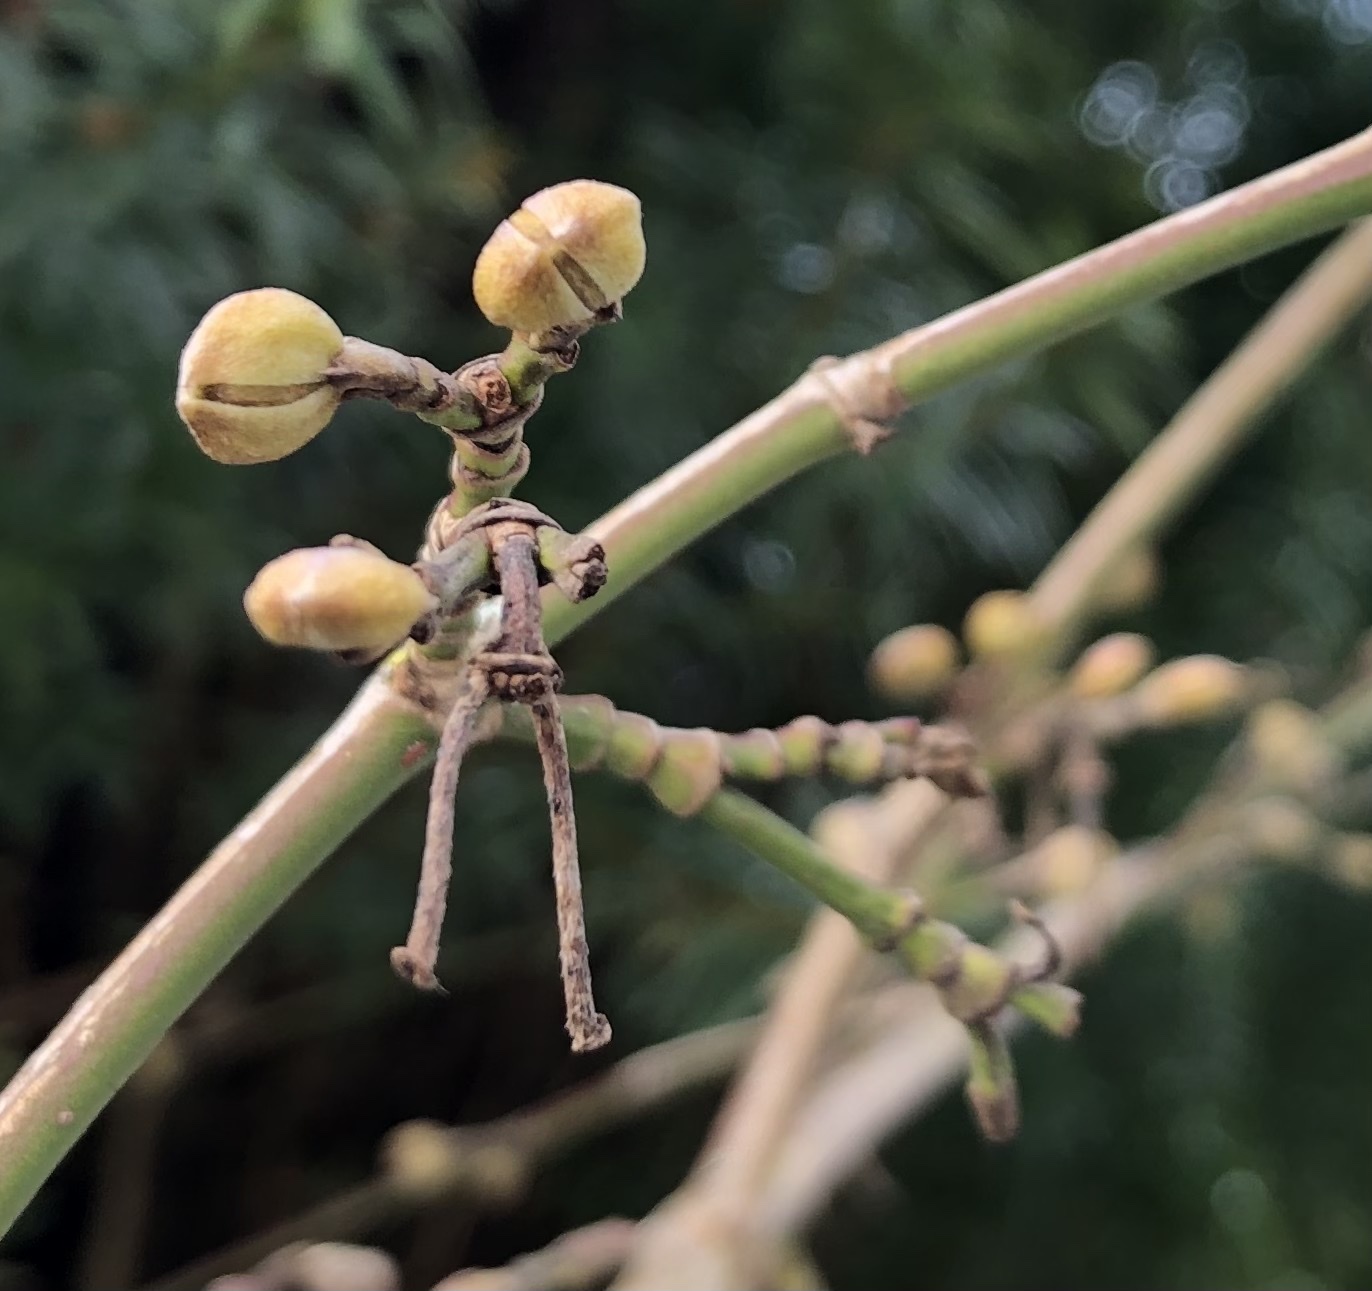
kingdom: Plantae
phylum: Tracheophyta
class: Magnoliopsida
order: Cornales
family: Cornaceae
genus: Cornus
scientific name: Cornus mas
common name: Cornelian-cherry
